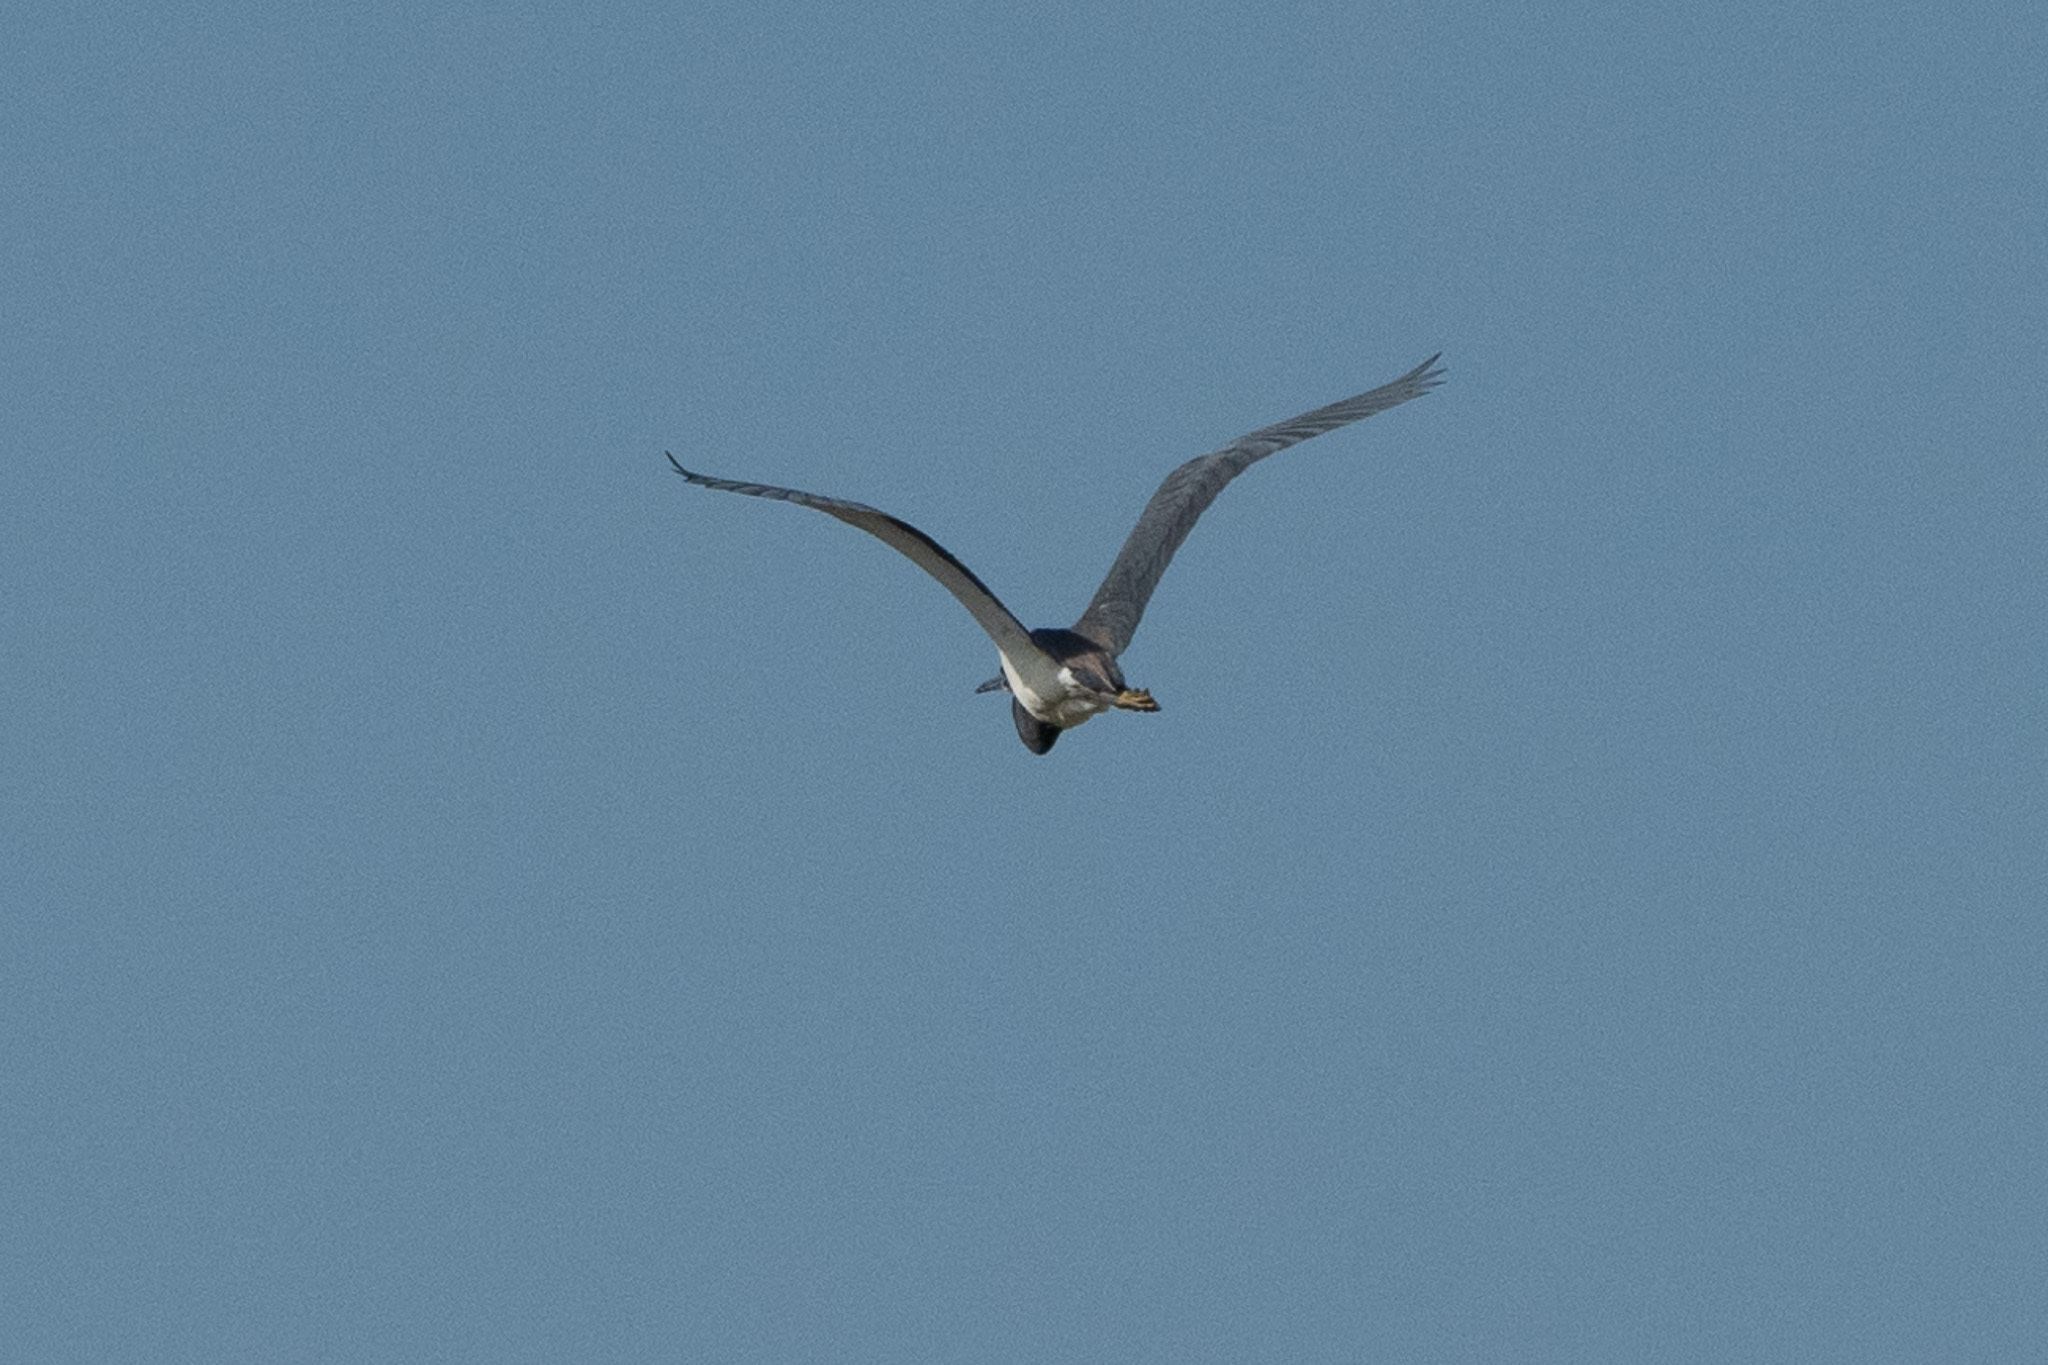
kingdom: Animalia
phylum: Chordata
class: Aves
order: Pelecaniformes
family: Ardeidae
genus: Nycticorax
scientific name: Nycticorax nycticorax
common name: Black-crowned night heron
